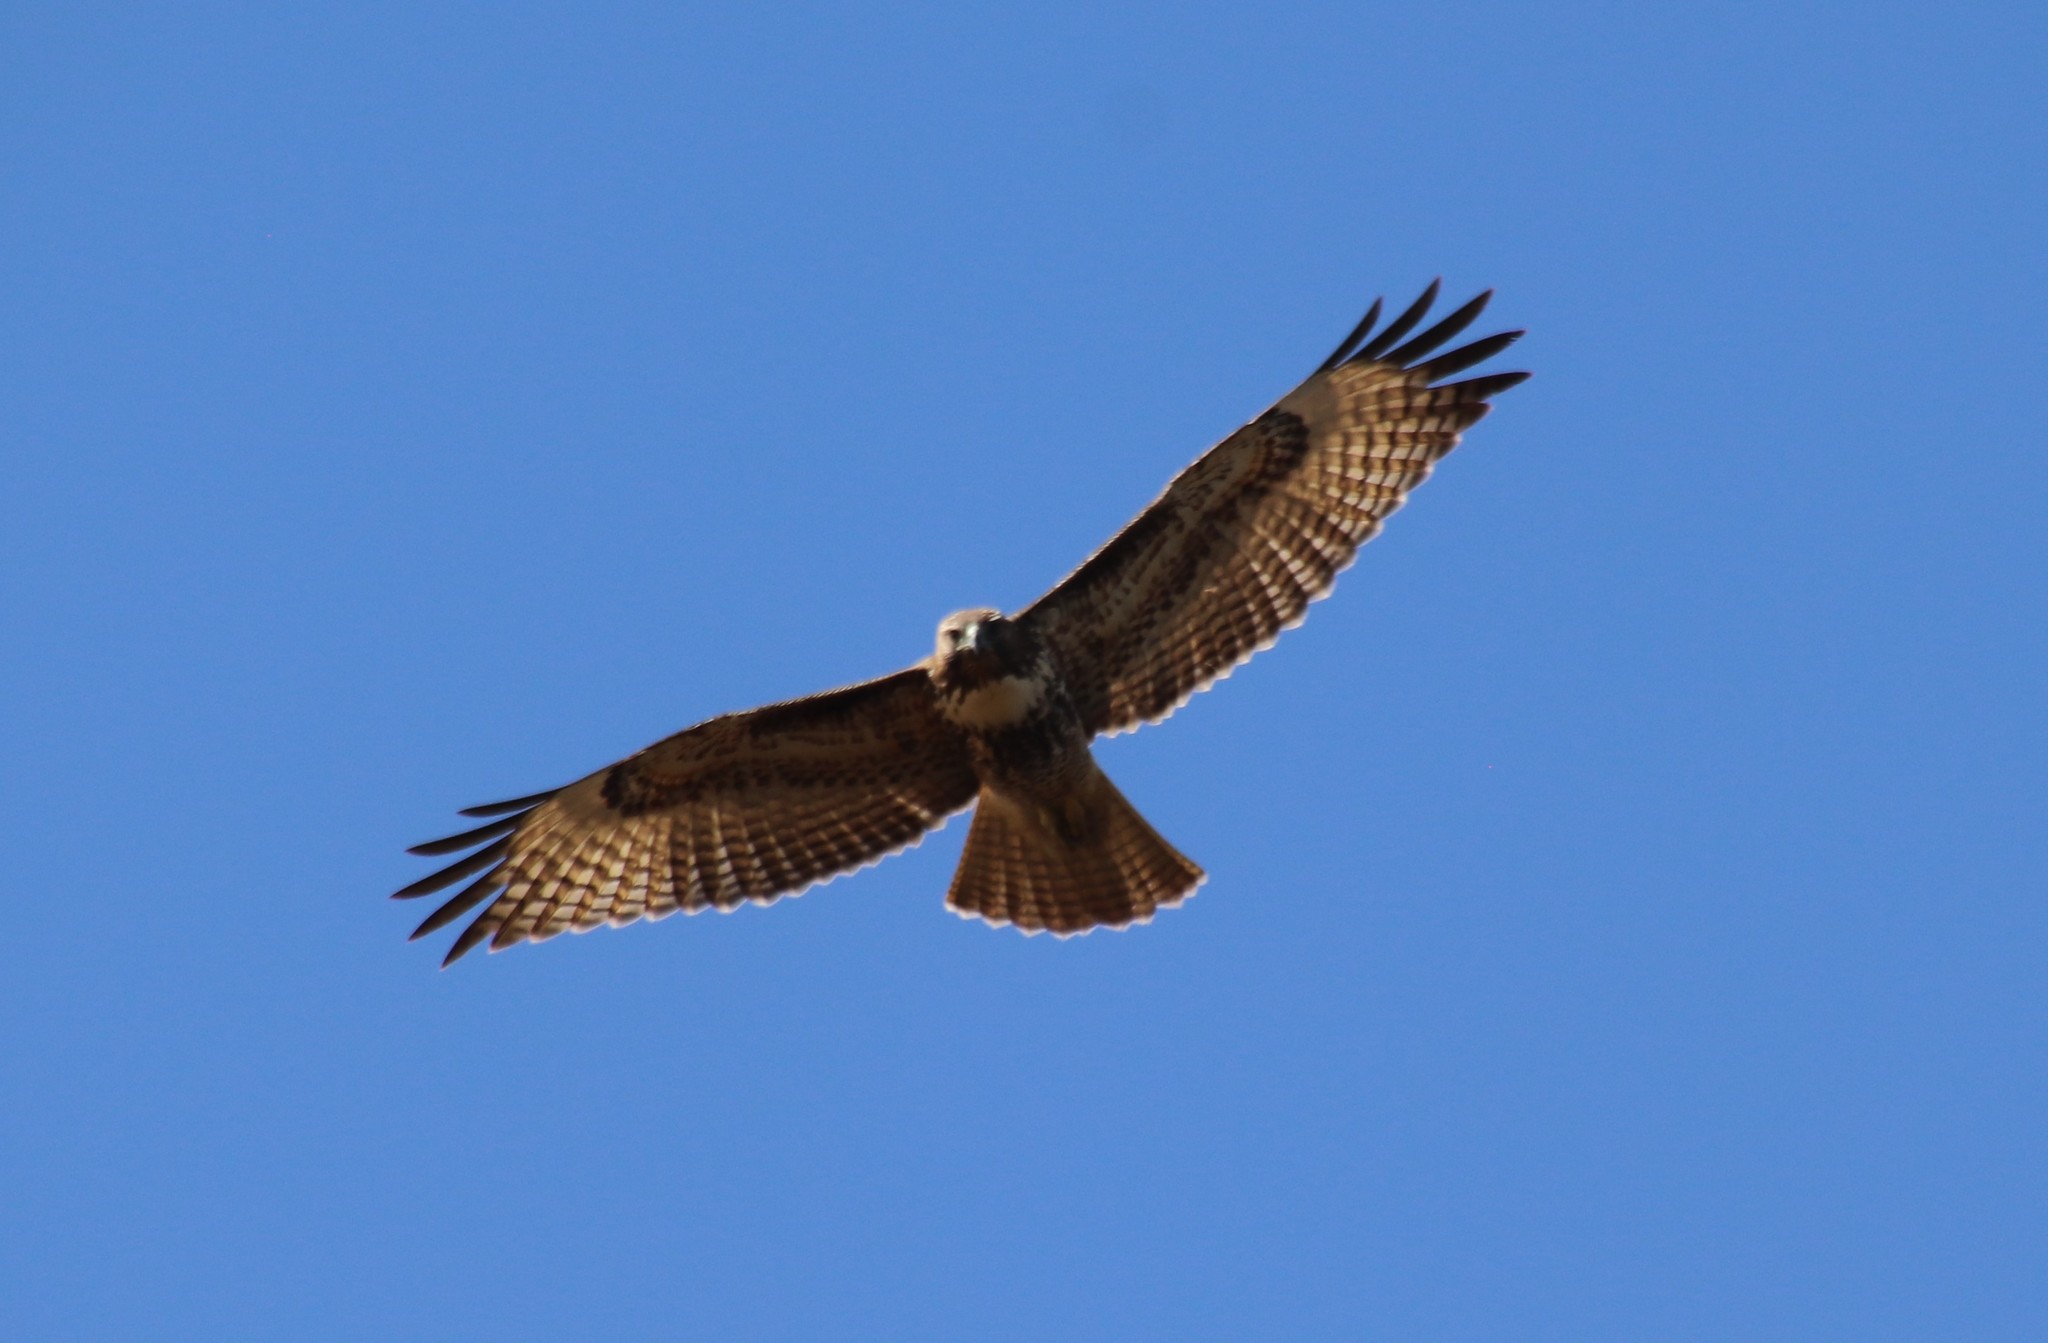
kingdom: Animalia
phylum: Chordata
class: Aves
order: Accipitriformes
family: Accipitridae
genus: Buteo
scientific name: Buteo jamaicensis
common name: Red-tailed hawk
